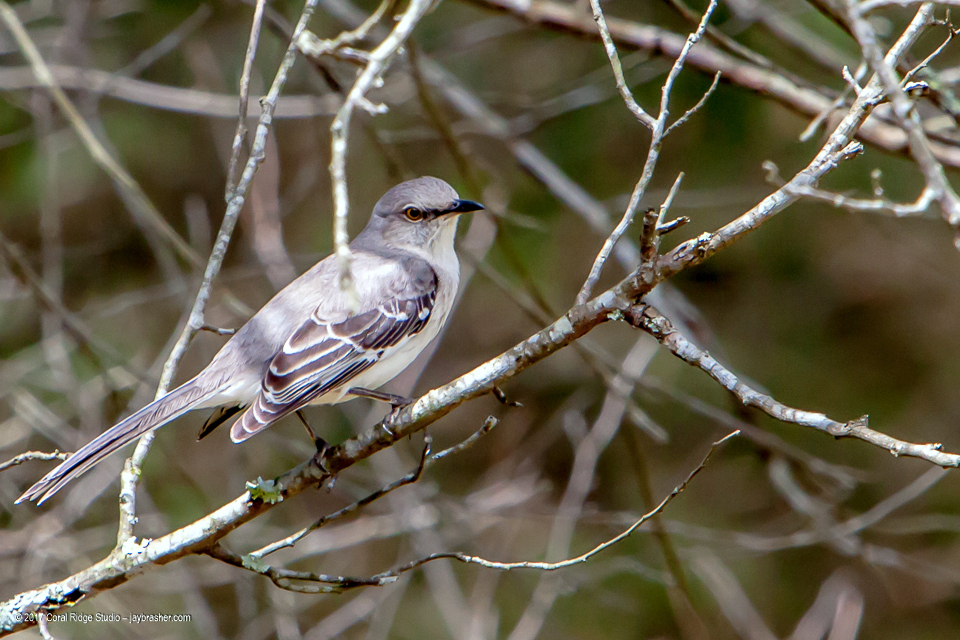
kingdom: Animalia
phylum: Chordata
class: Aves
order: Passeriformes
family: Mimidae
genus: Mimus
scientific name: Mimus polyglottos
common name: Northern mockingbird
